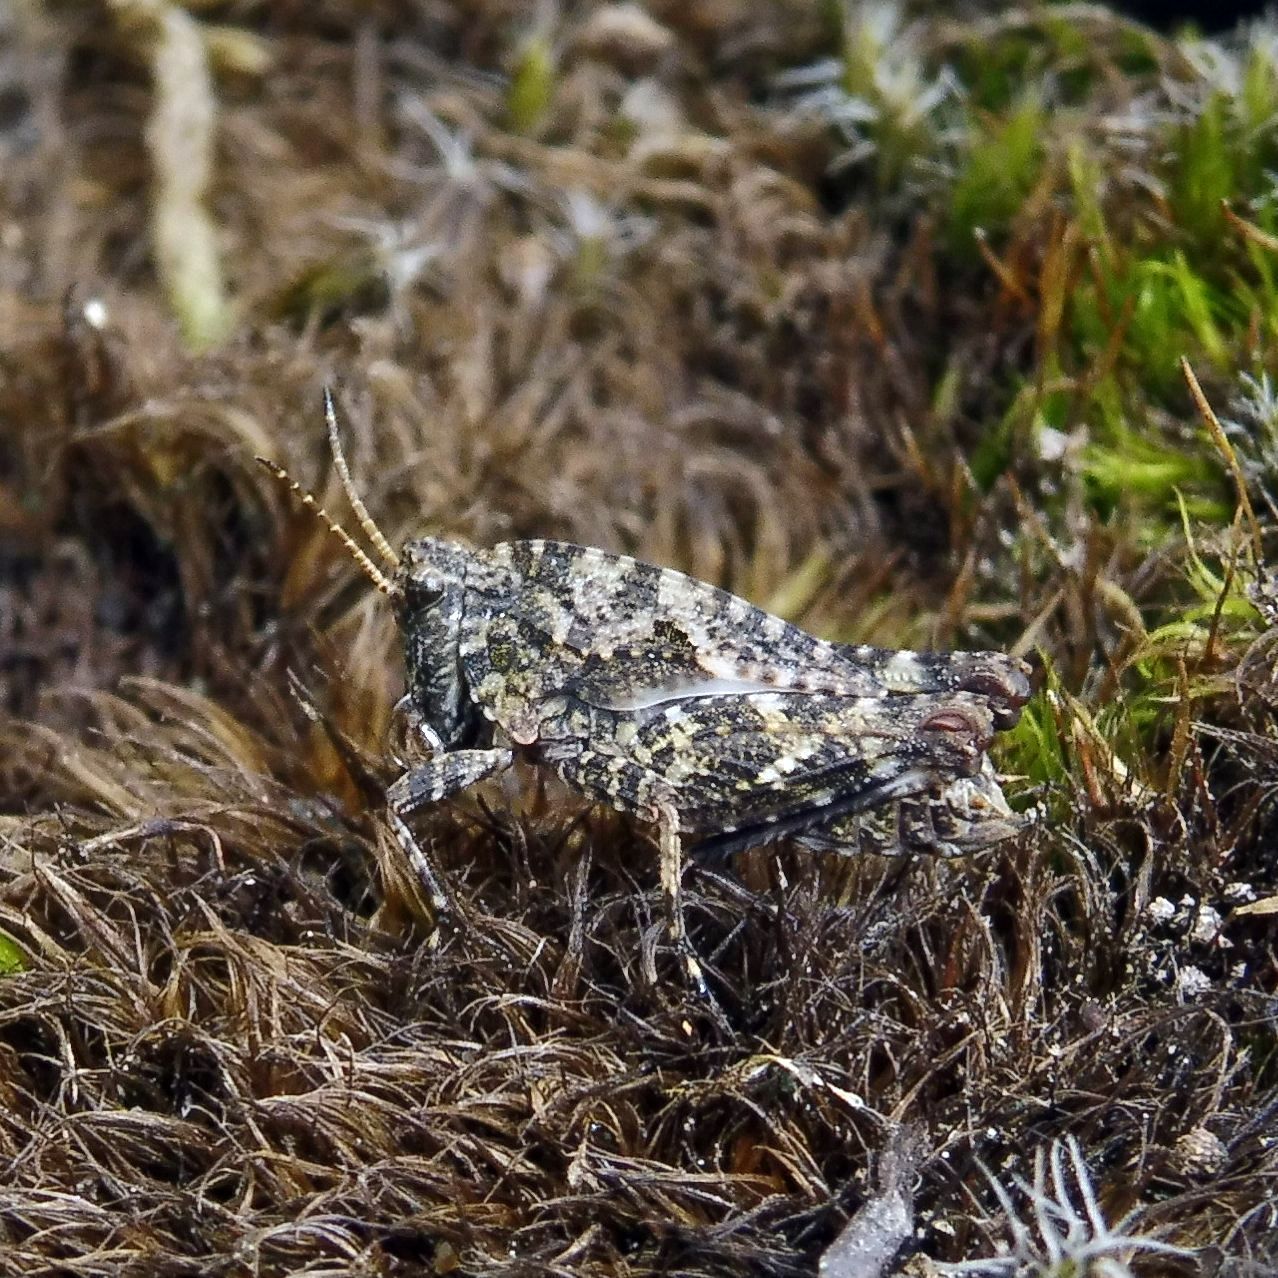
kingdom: Animalia
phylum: Arthropoda
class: Insecta
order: Orthoptera
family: Tetrigidae
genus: Tetrix
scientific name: Tetrix undulata
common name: Common groundhopper
